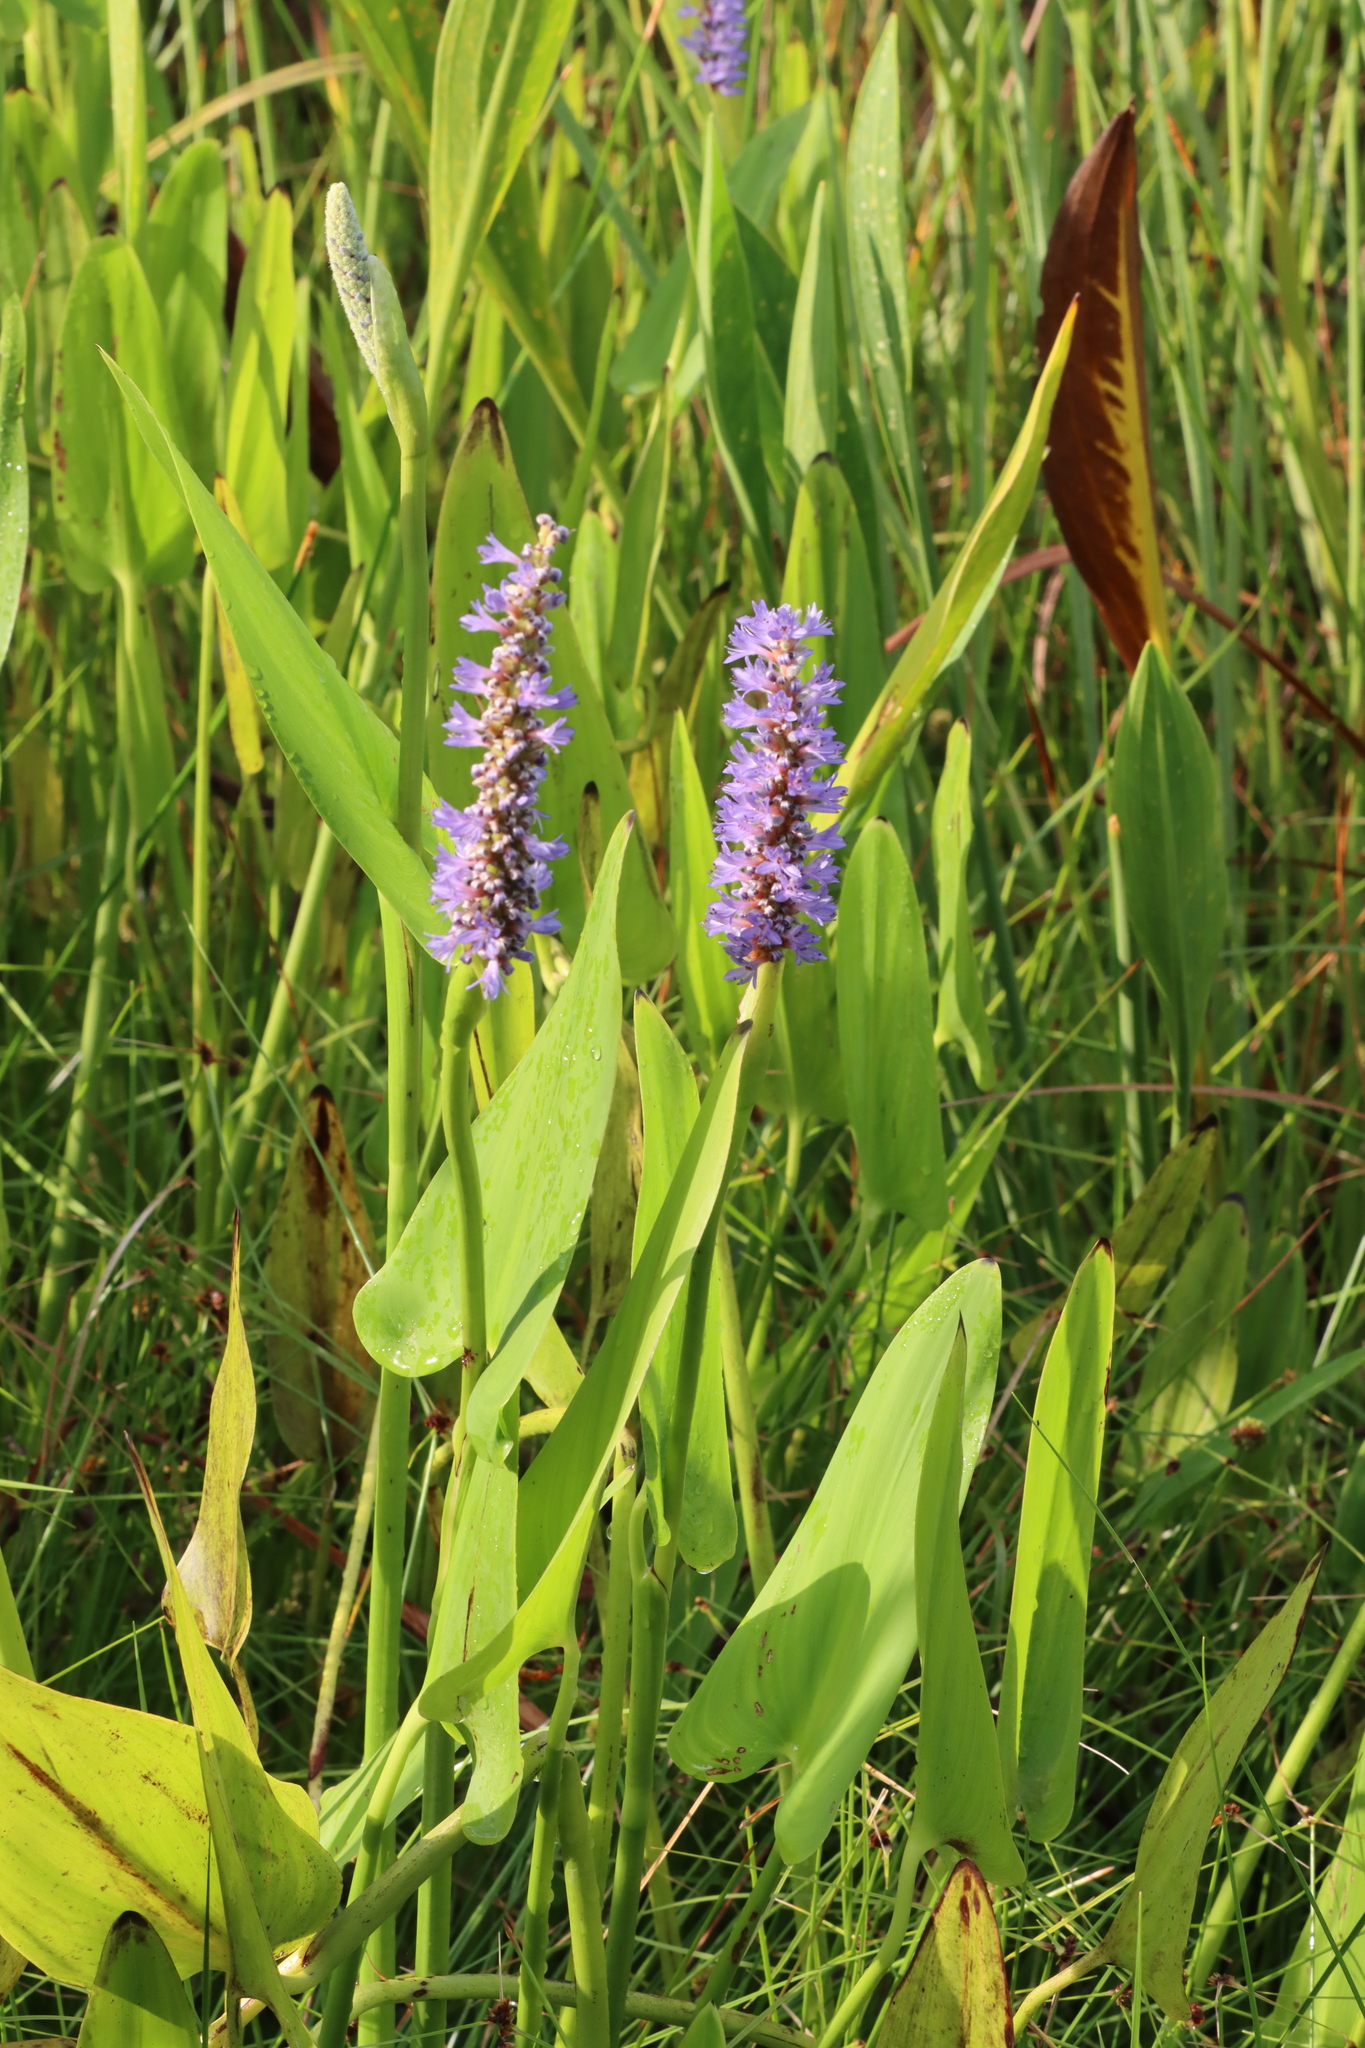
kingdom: Plantae
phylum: Tracheophyta
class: Liliopsida
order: Commelinales
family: Pontederiaceae
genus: Pontederia
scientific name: Pontederia cordata
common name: Pickerelweed
